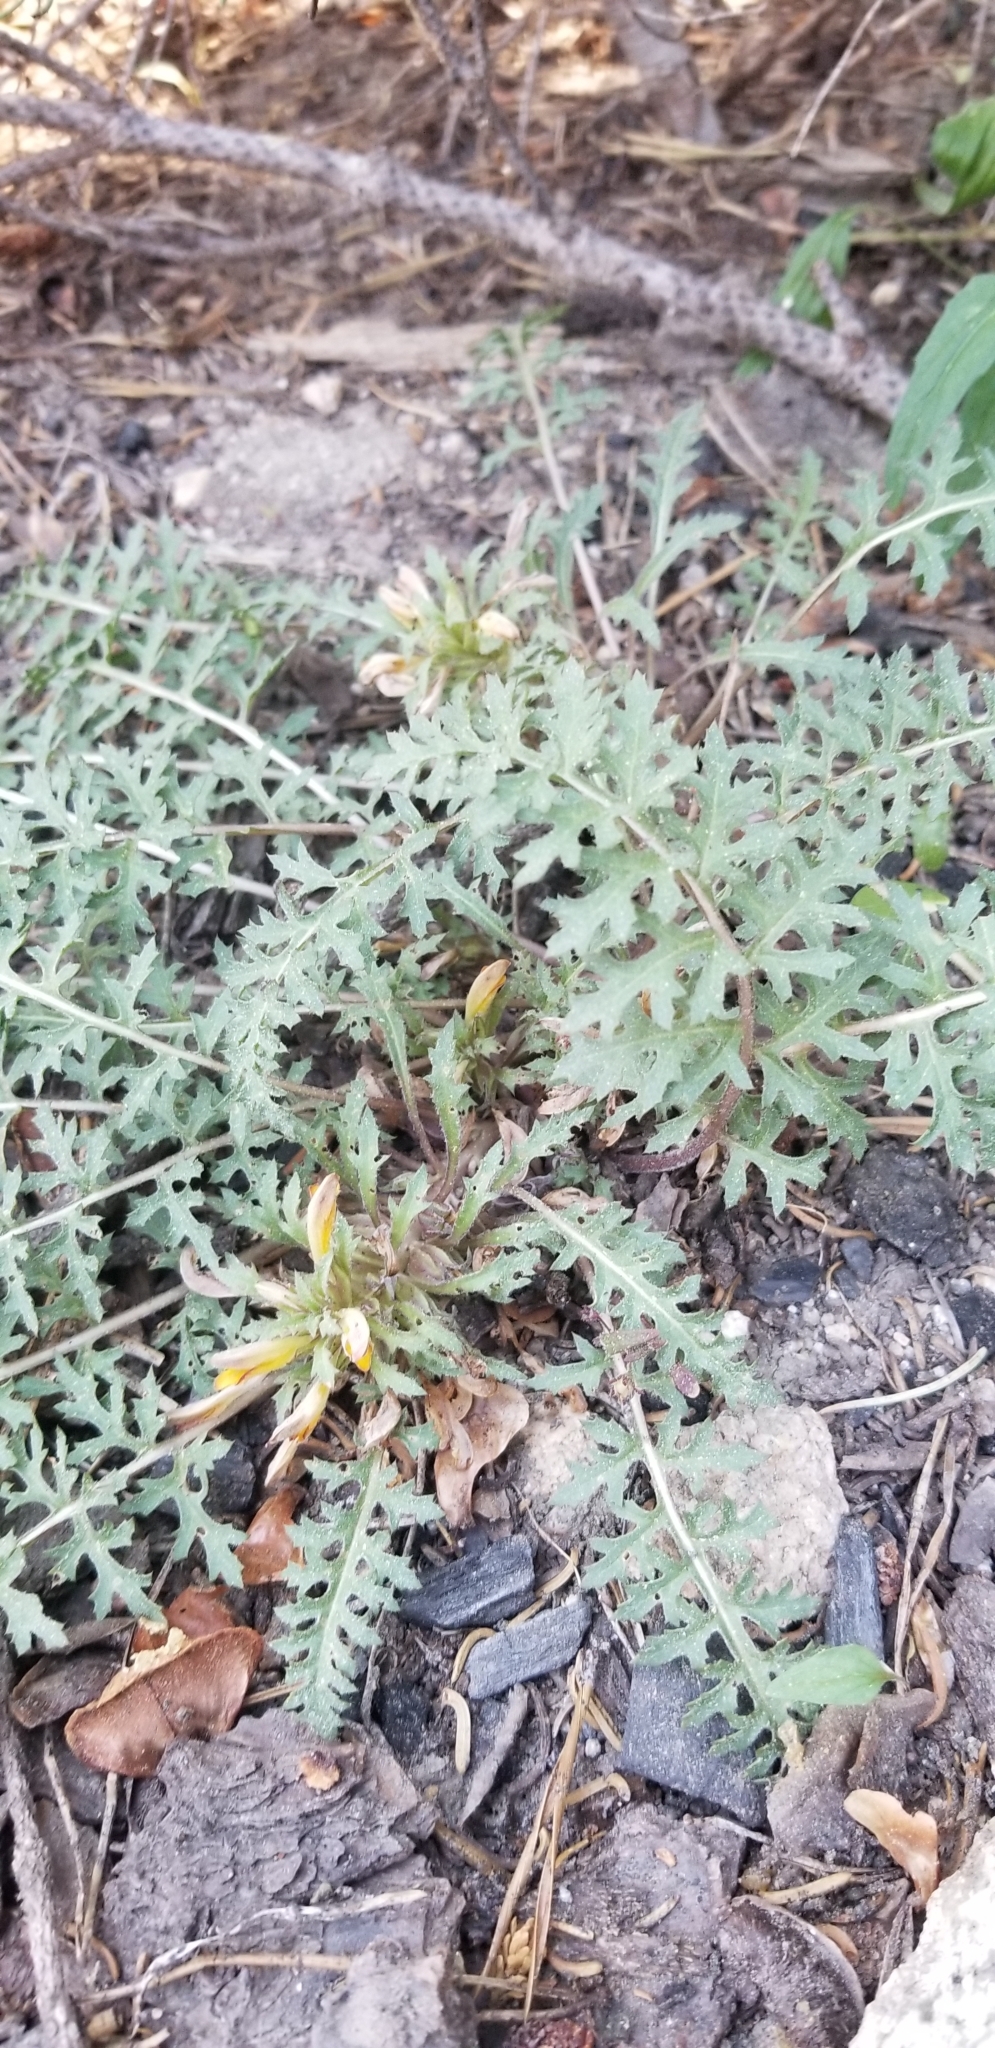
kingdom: Plantae
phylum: Tracheophyta
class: Magnoliopsida
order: Lamiales
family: Orobanchaceae
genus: Pedicularis
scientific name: Pedicularis semibarbata
